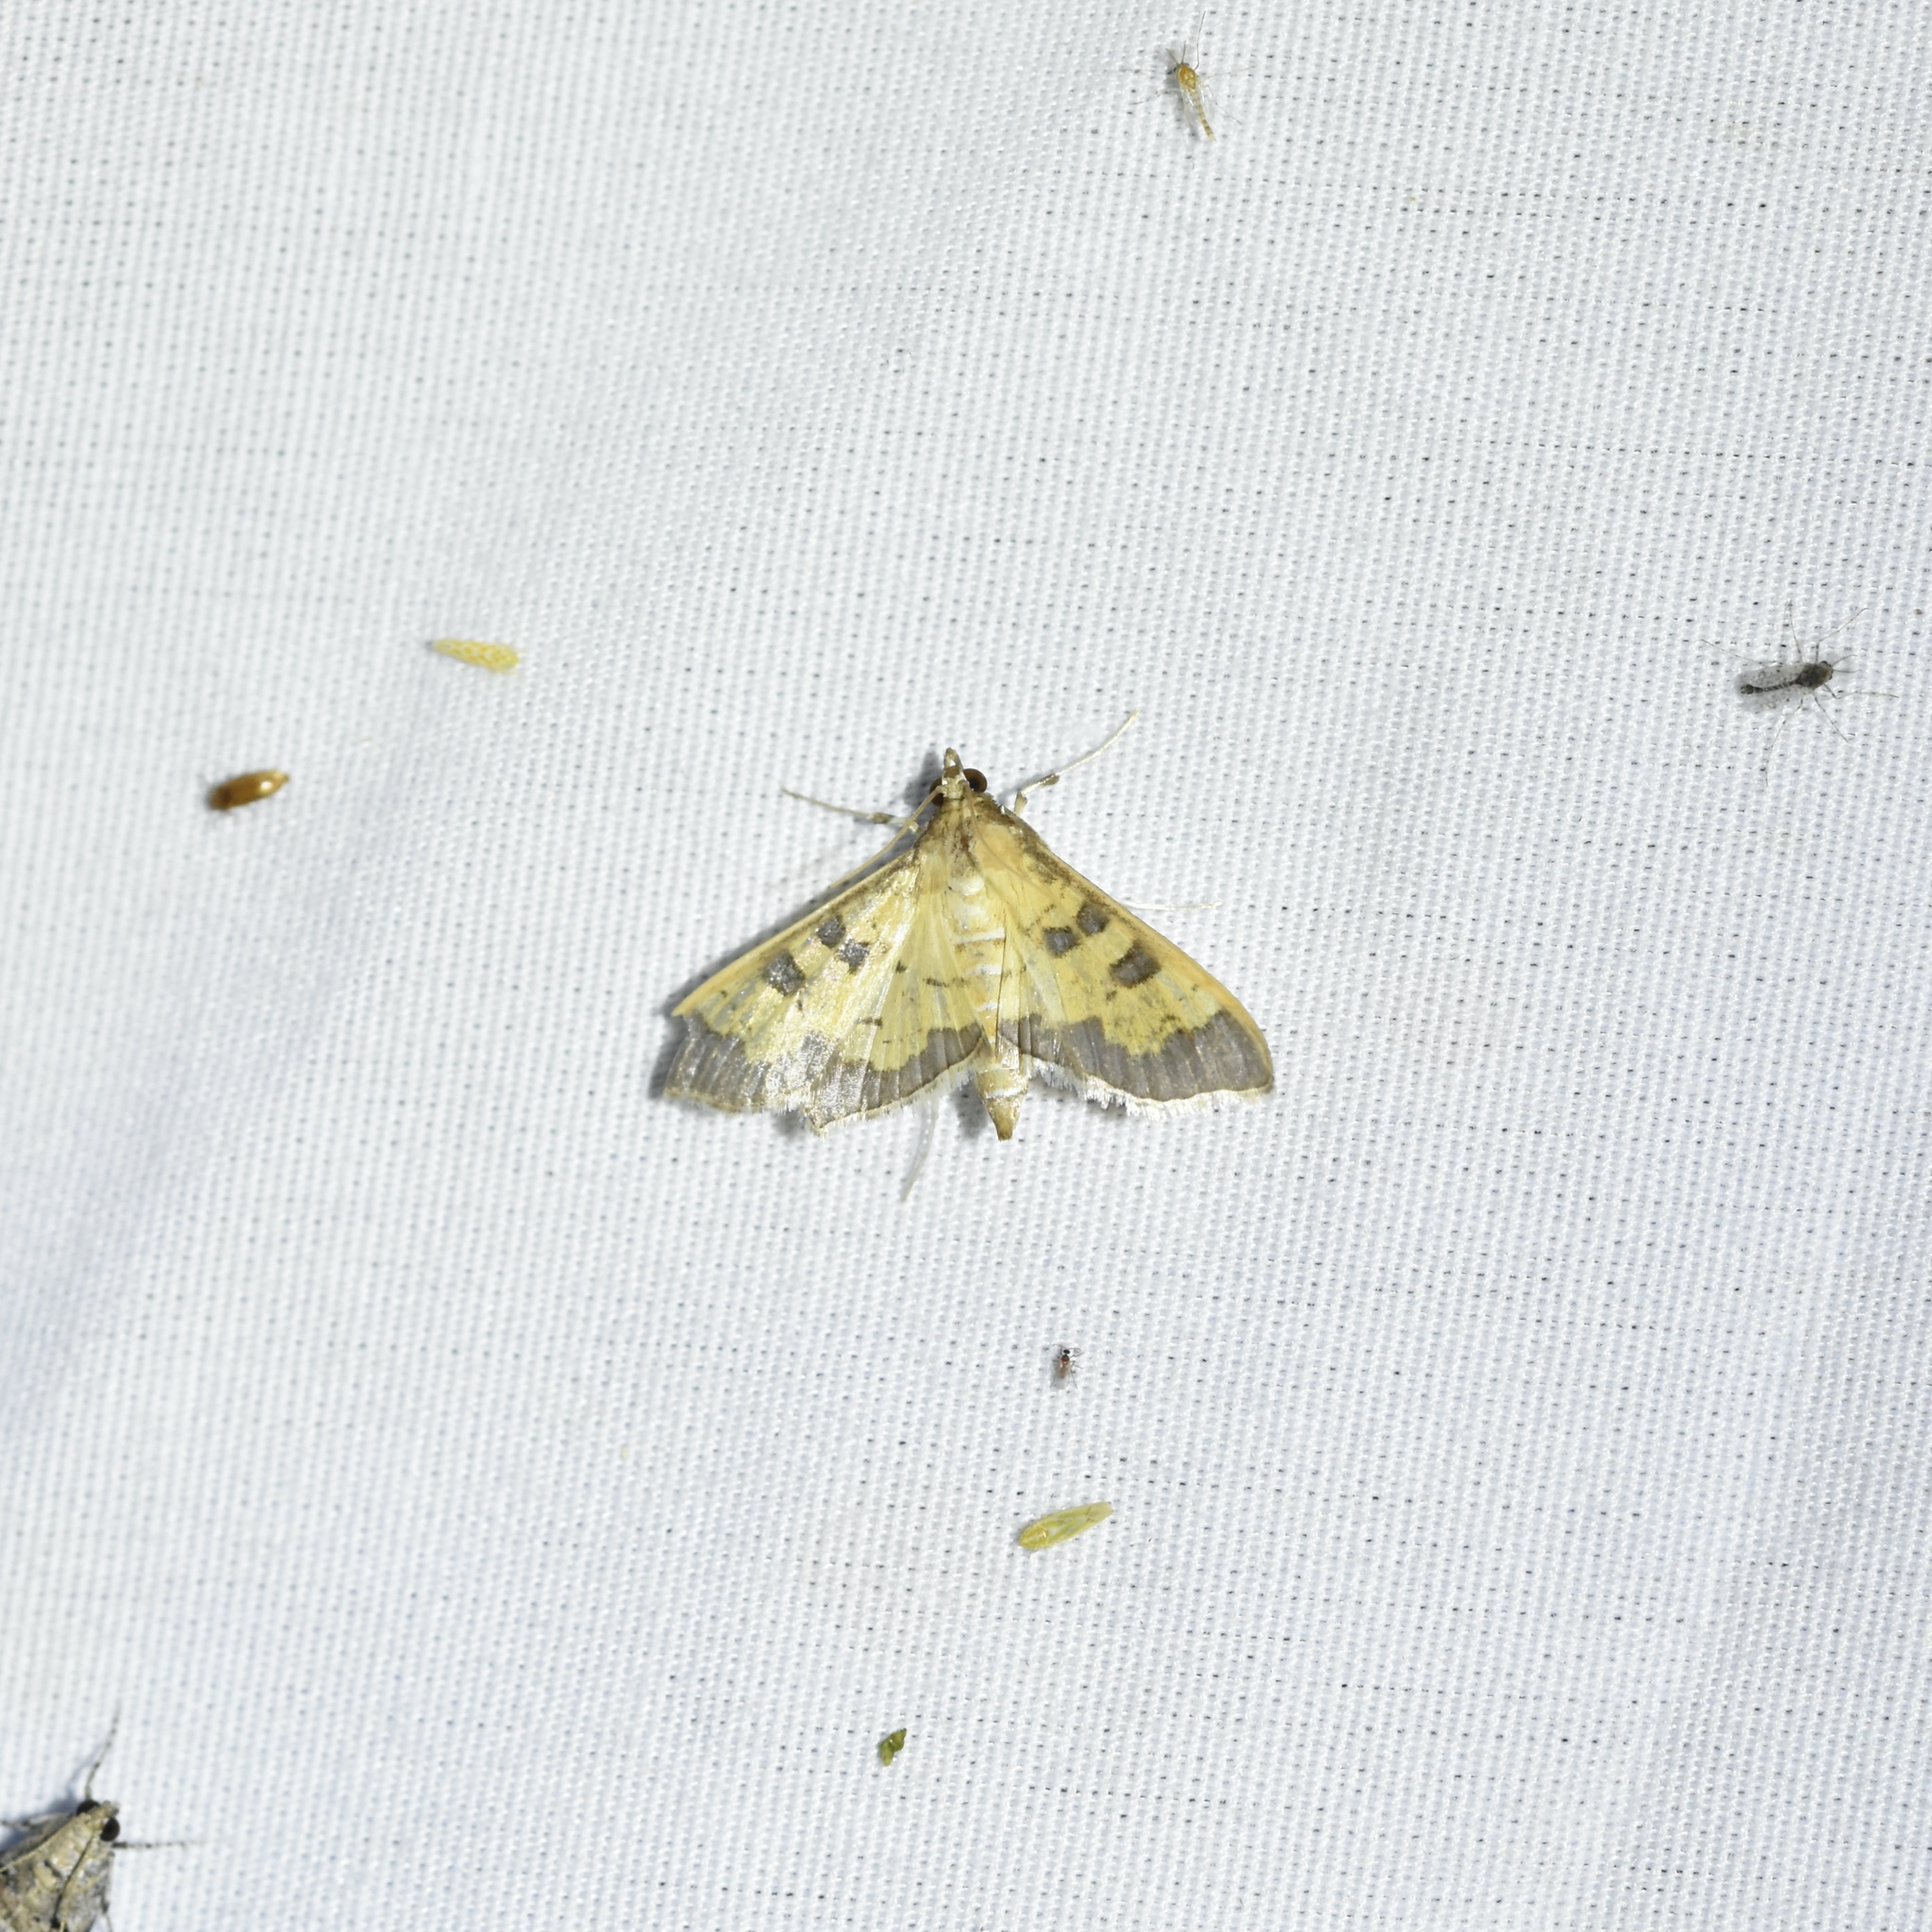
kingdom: Animalia
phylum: Arthropoda
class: Insecta
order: Lepidoptera
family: Crambidae
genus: Cryptographis
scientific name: Cryptographis elealis
